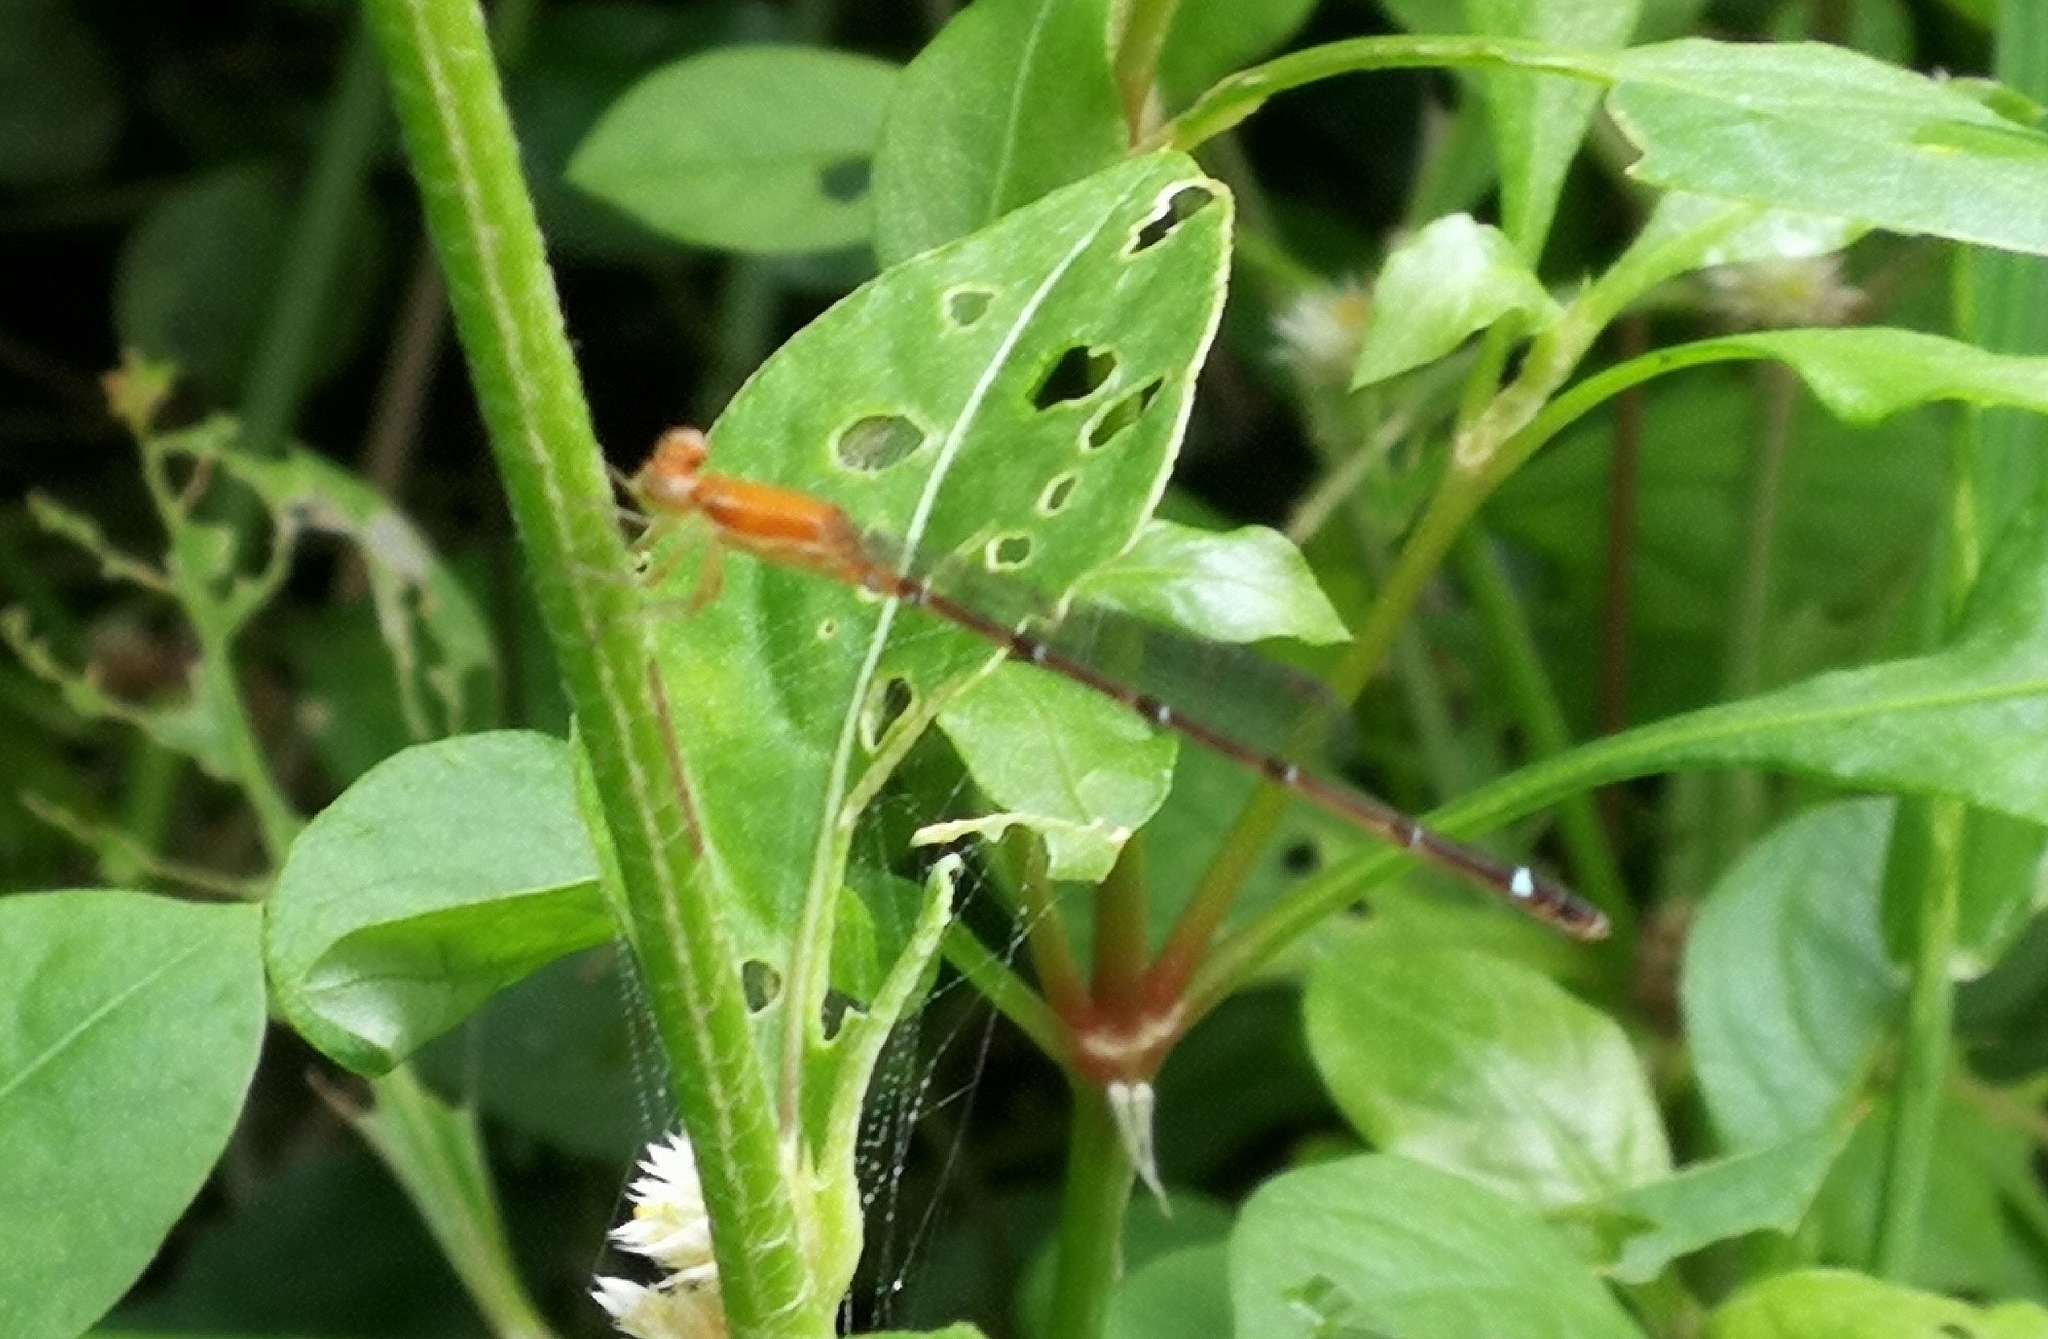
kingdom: Animalia
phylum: Arthropoda
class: Insecta
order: Odonata
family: Coenagrionidae
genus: Mortonagrion
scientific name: Mortonagrion varralli
